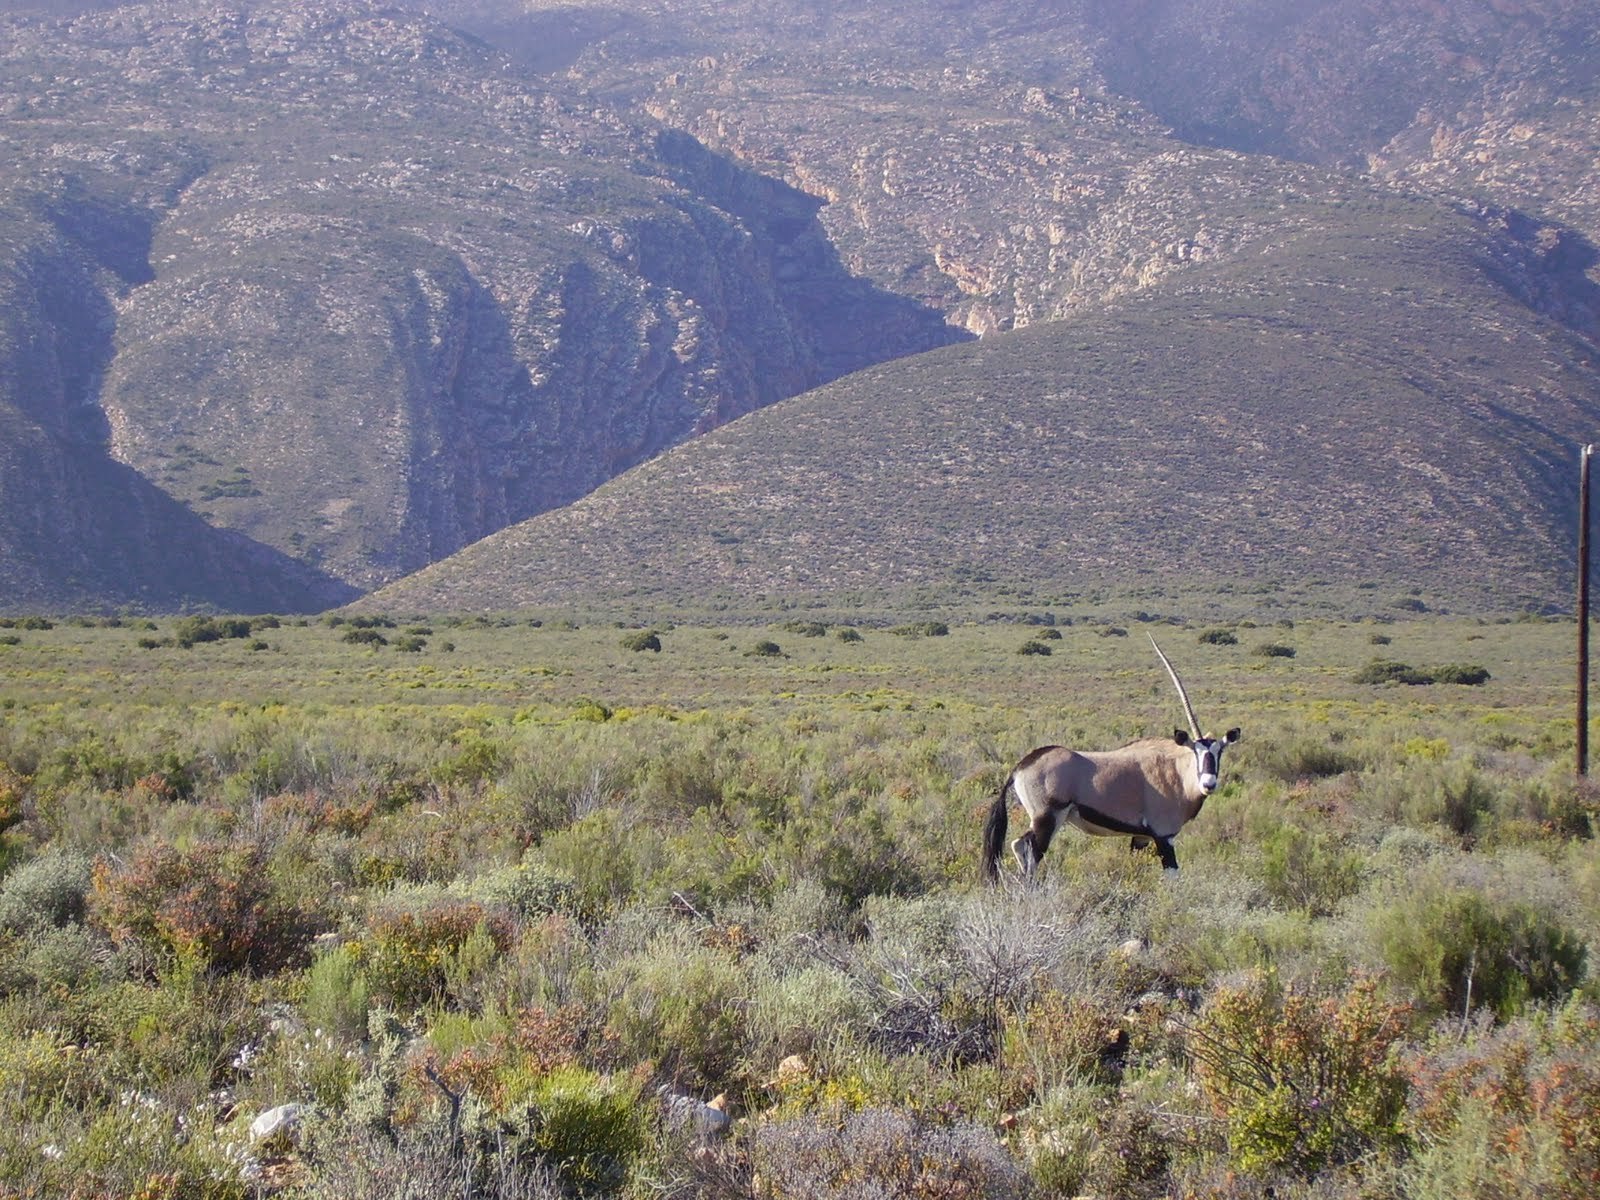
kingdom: Animalia
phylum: Chordata
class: Mammalia
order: Artiodactyla
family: Bovidae
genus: Oryx
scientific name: Oryx gazella
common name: Gemsbok
